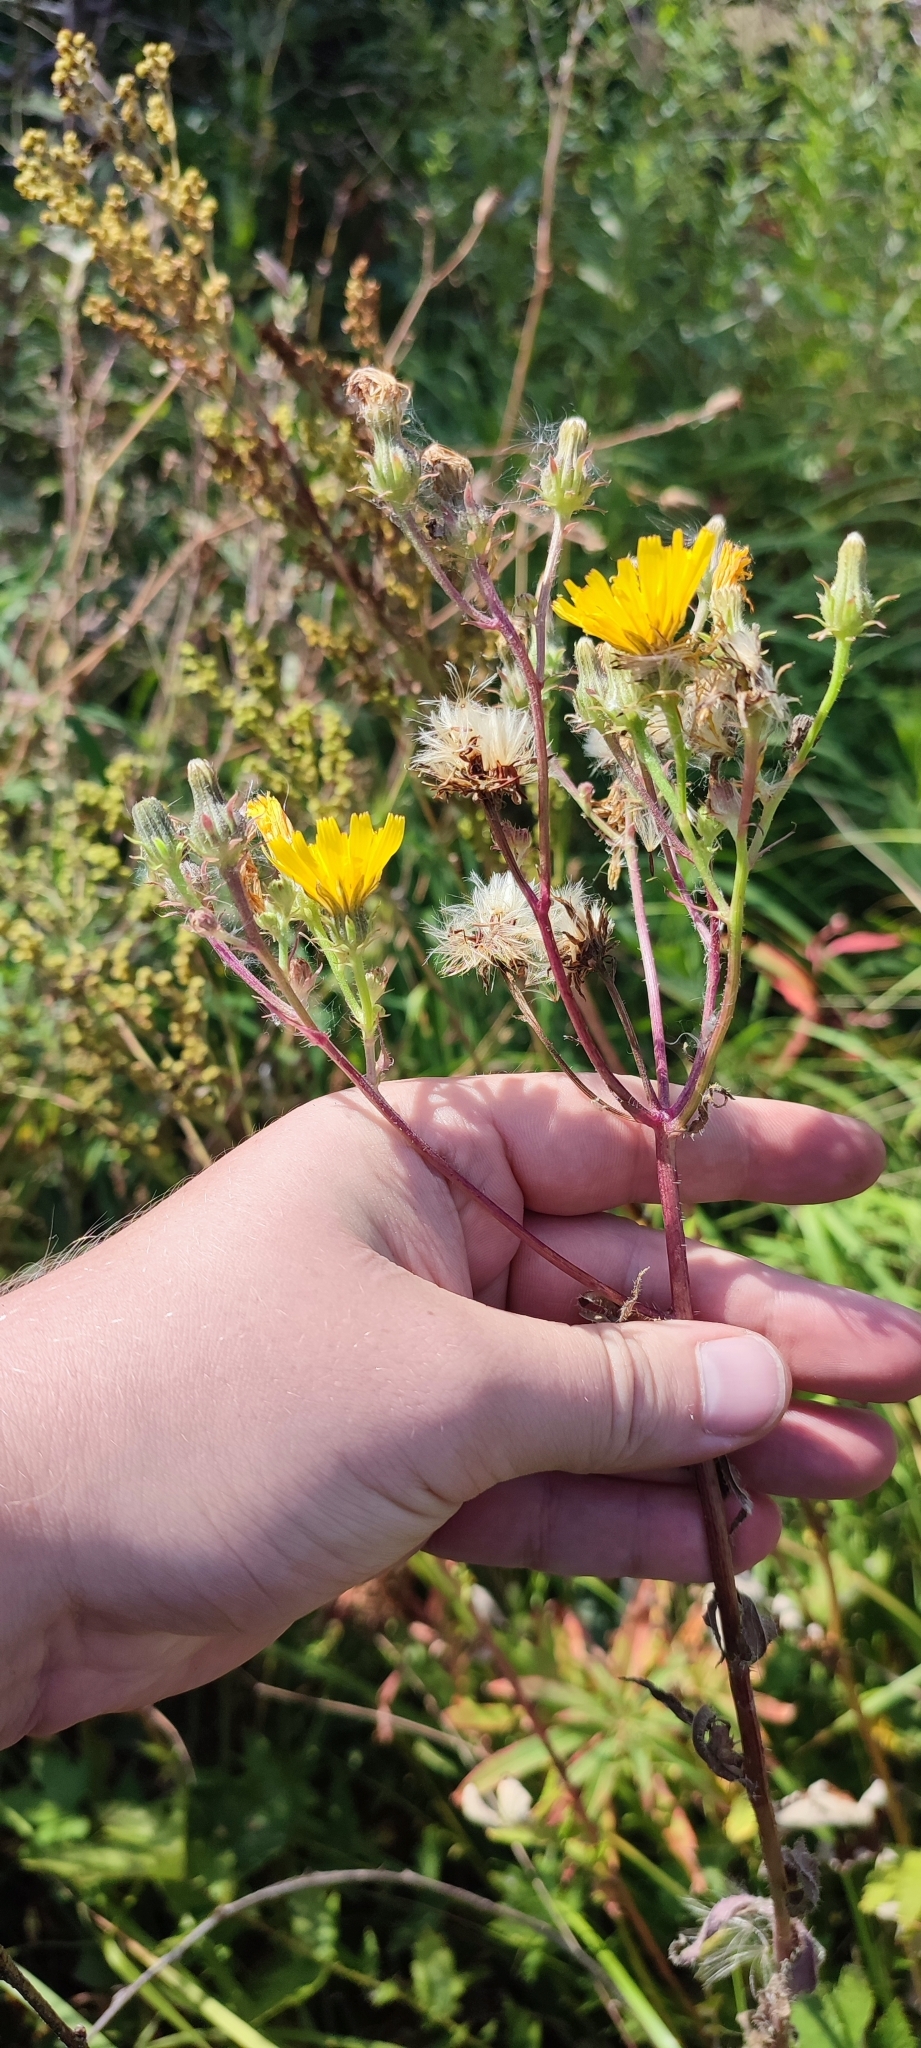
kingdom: Plantae
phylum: Tracheophyta
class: Magnoliopsida
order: Asterales
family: Asteraceae
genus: Picris
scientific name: Picris hieracioides
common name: Hawkweed oxtongue
